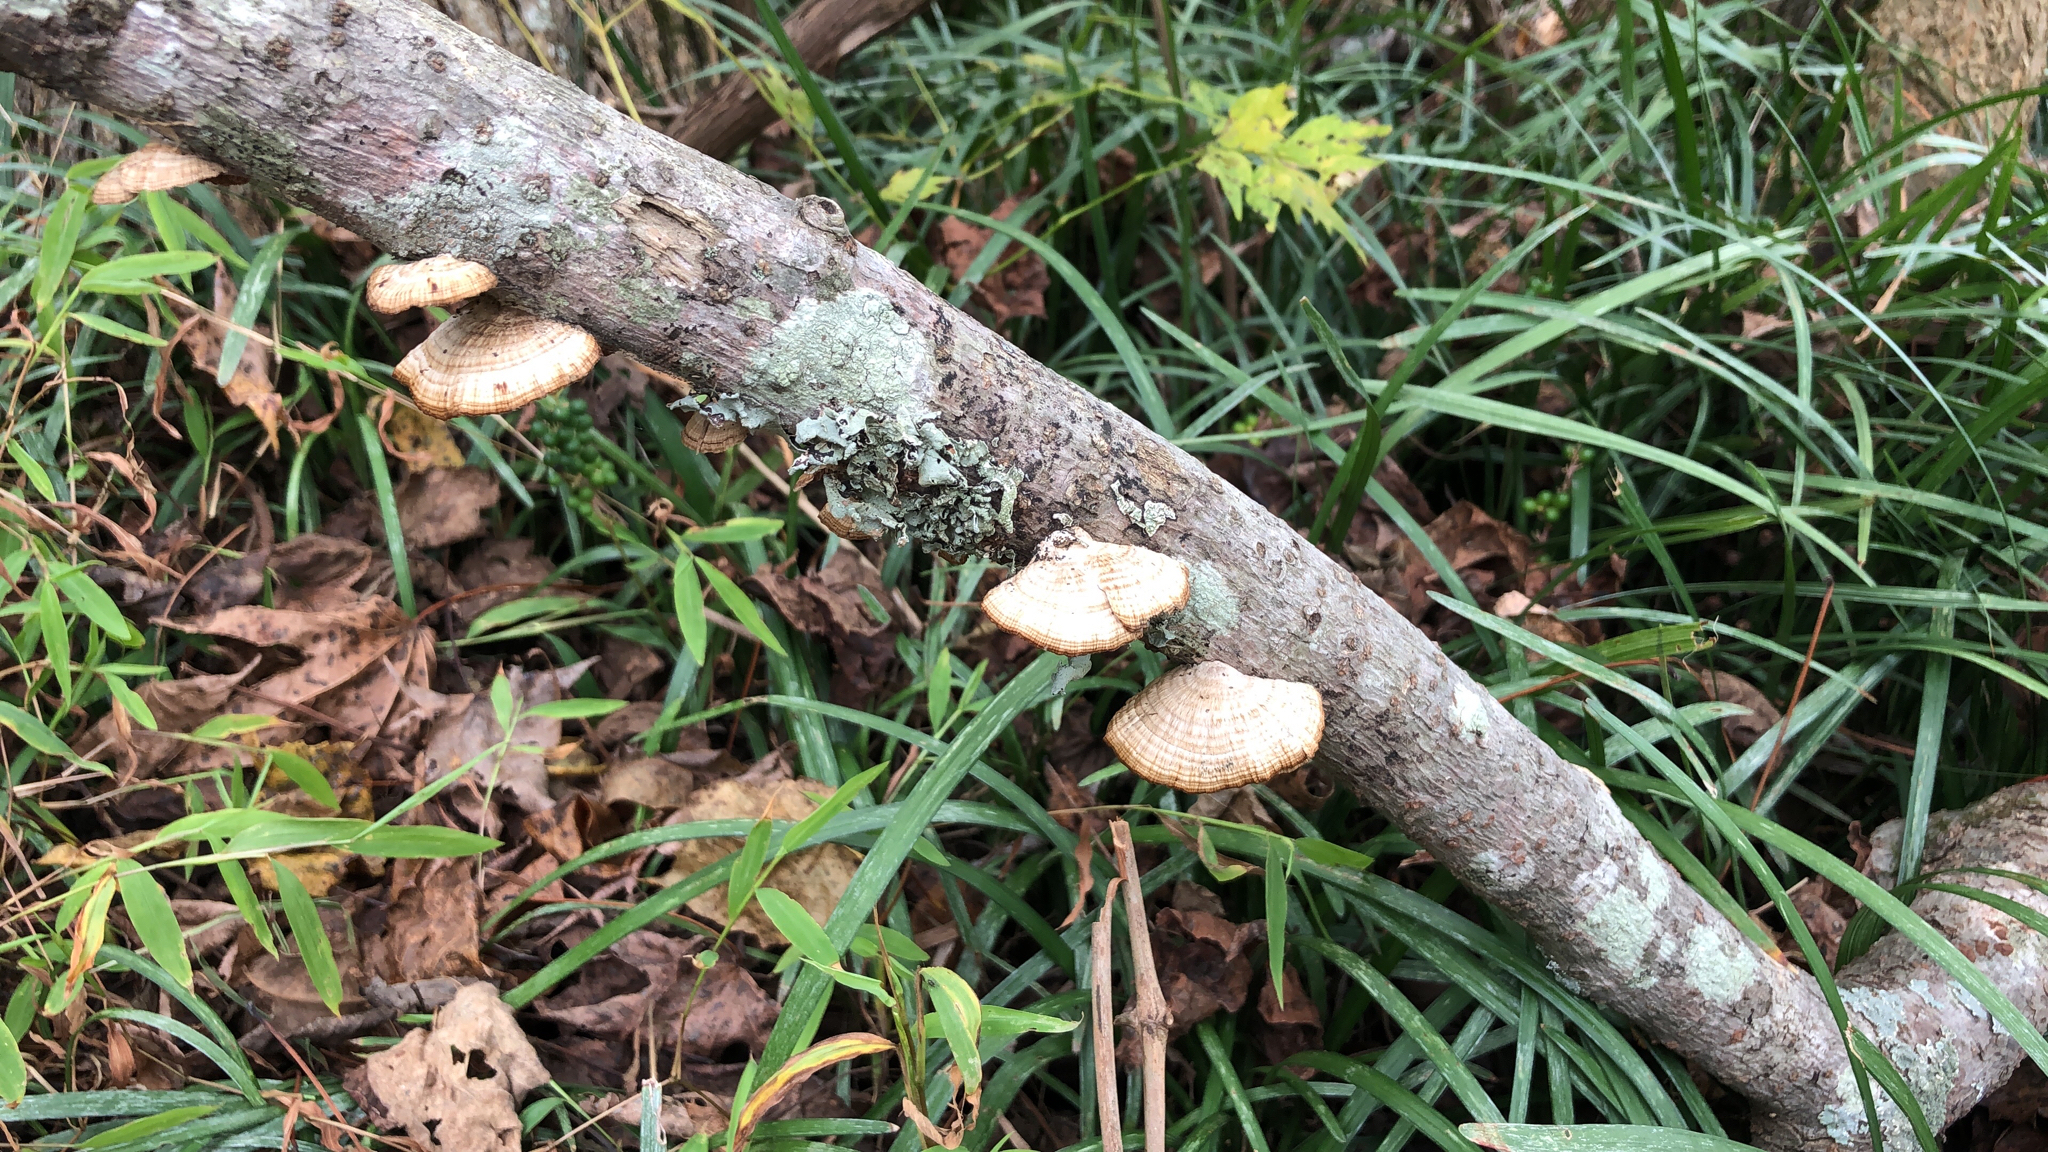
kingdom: Fungi
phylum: Basidiomycota
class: Agaricomycetes
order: Polyporales
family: Polyporaceae
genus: Daedaleopsis
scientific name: Daedaleopsis confragosa
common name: Blushing bracket
